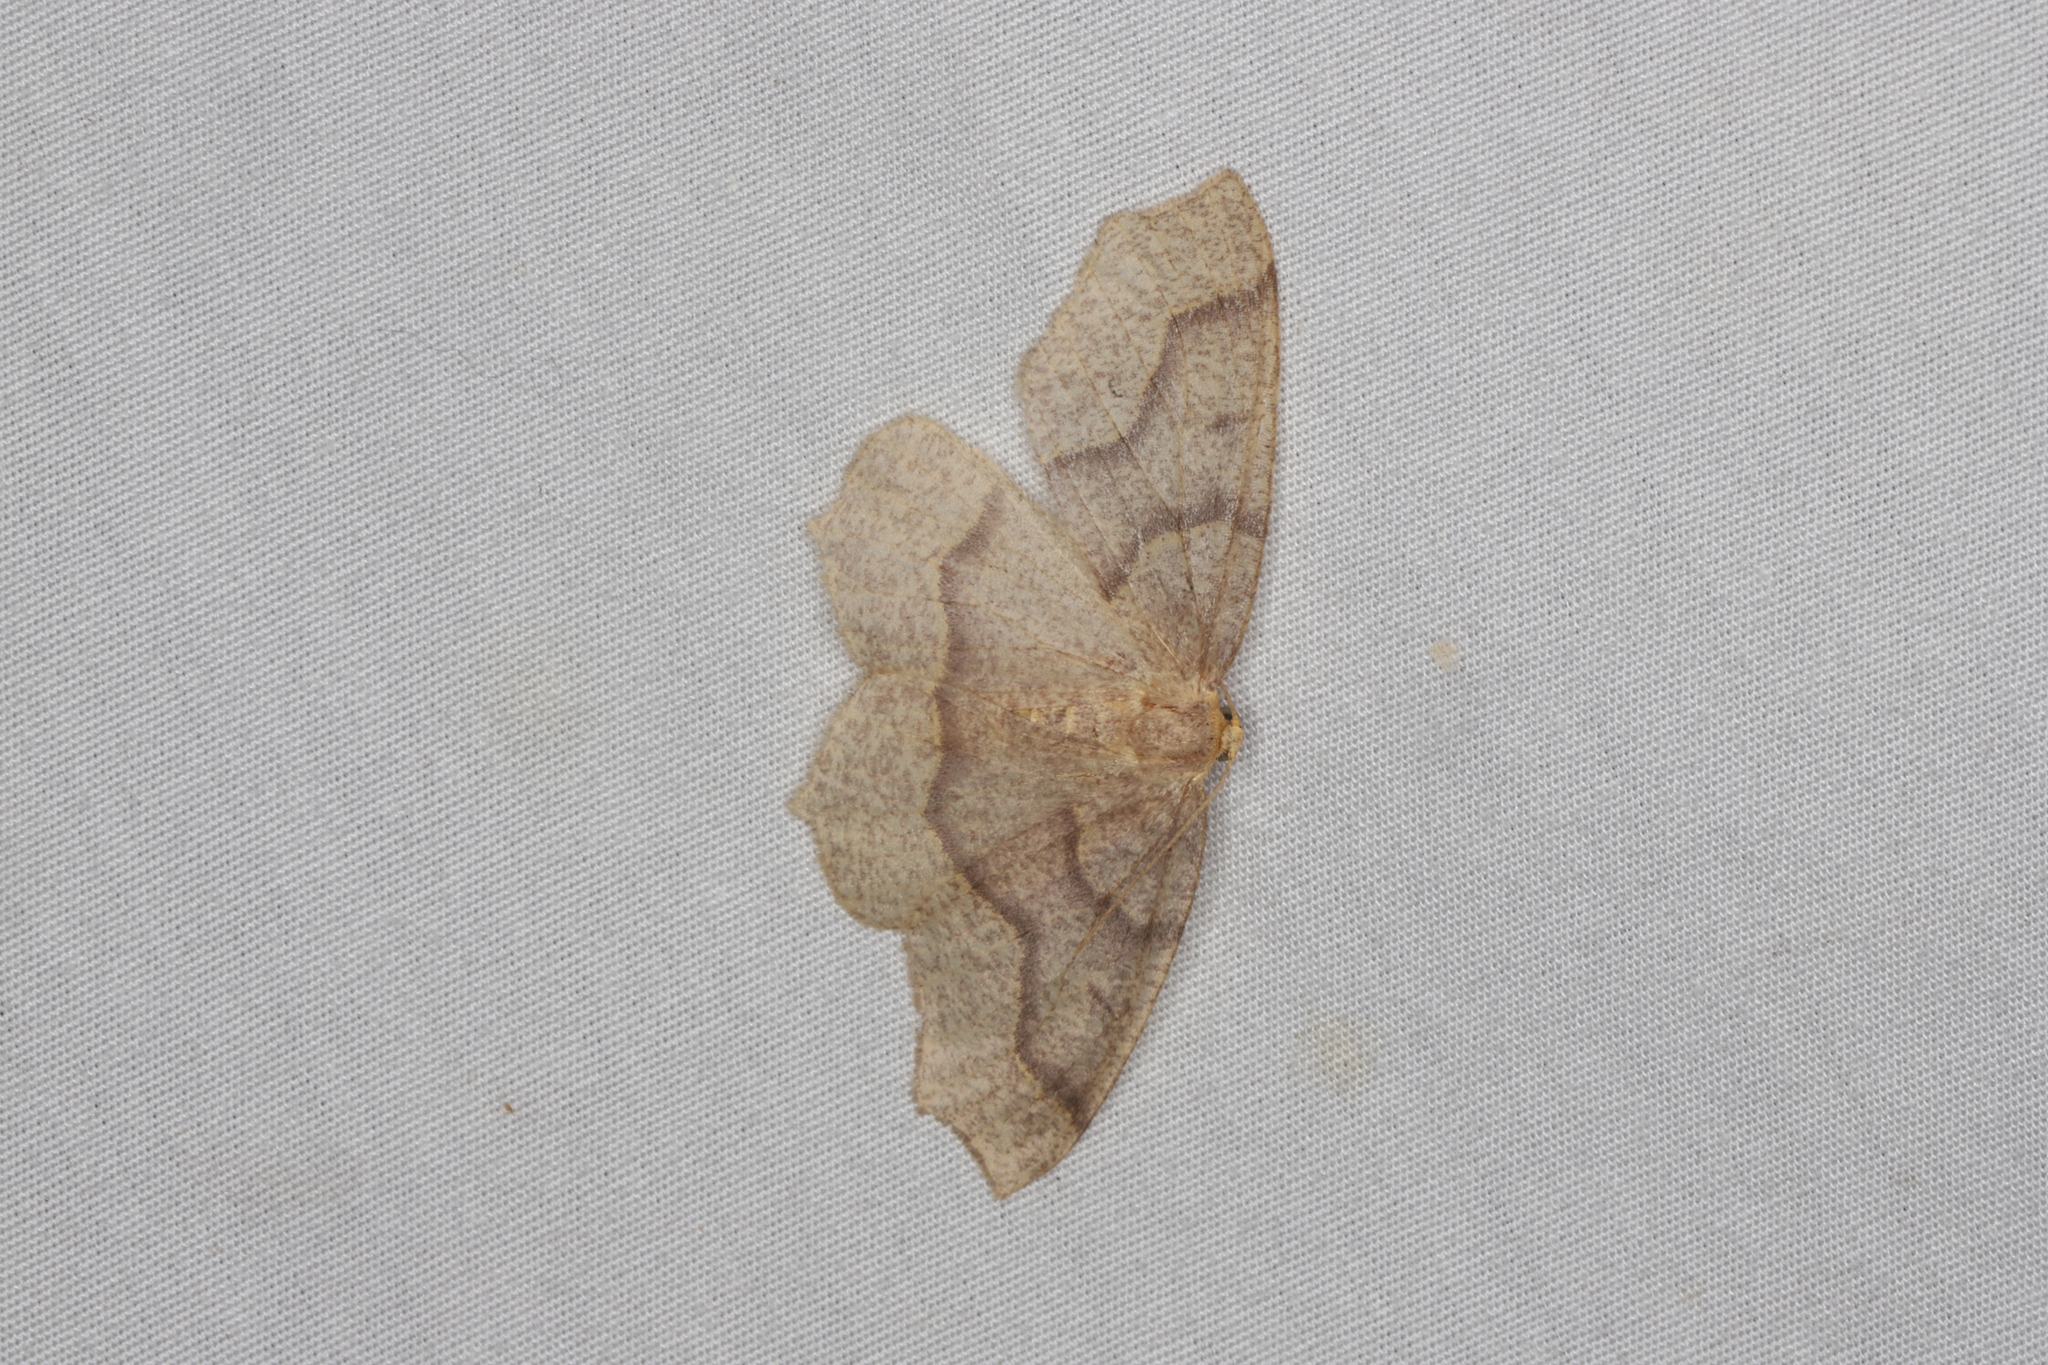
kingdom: Animalia
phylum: Arthropoda
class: Insecta
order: Lepidoptera
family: Geometridae
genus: Lambdina
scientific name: Lambdina fiscellaria
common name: Hemlock looper
